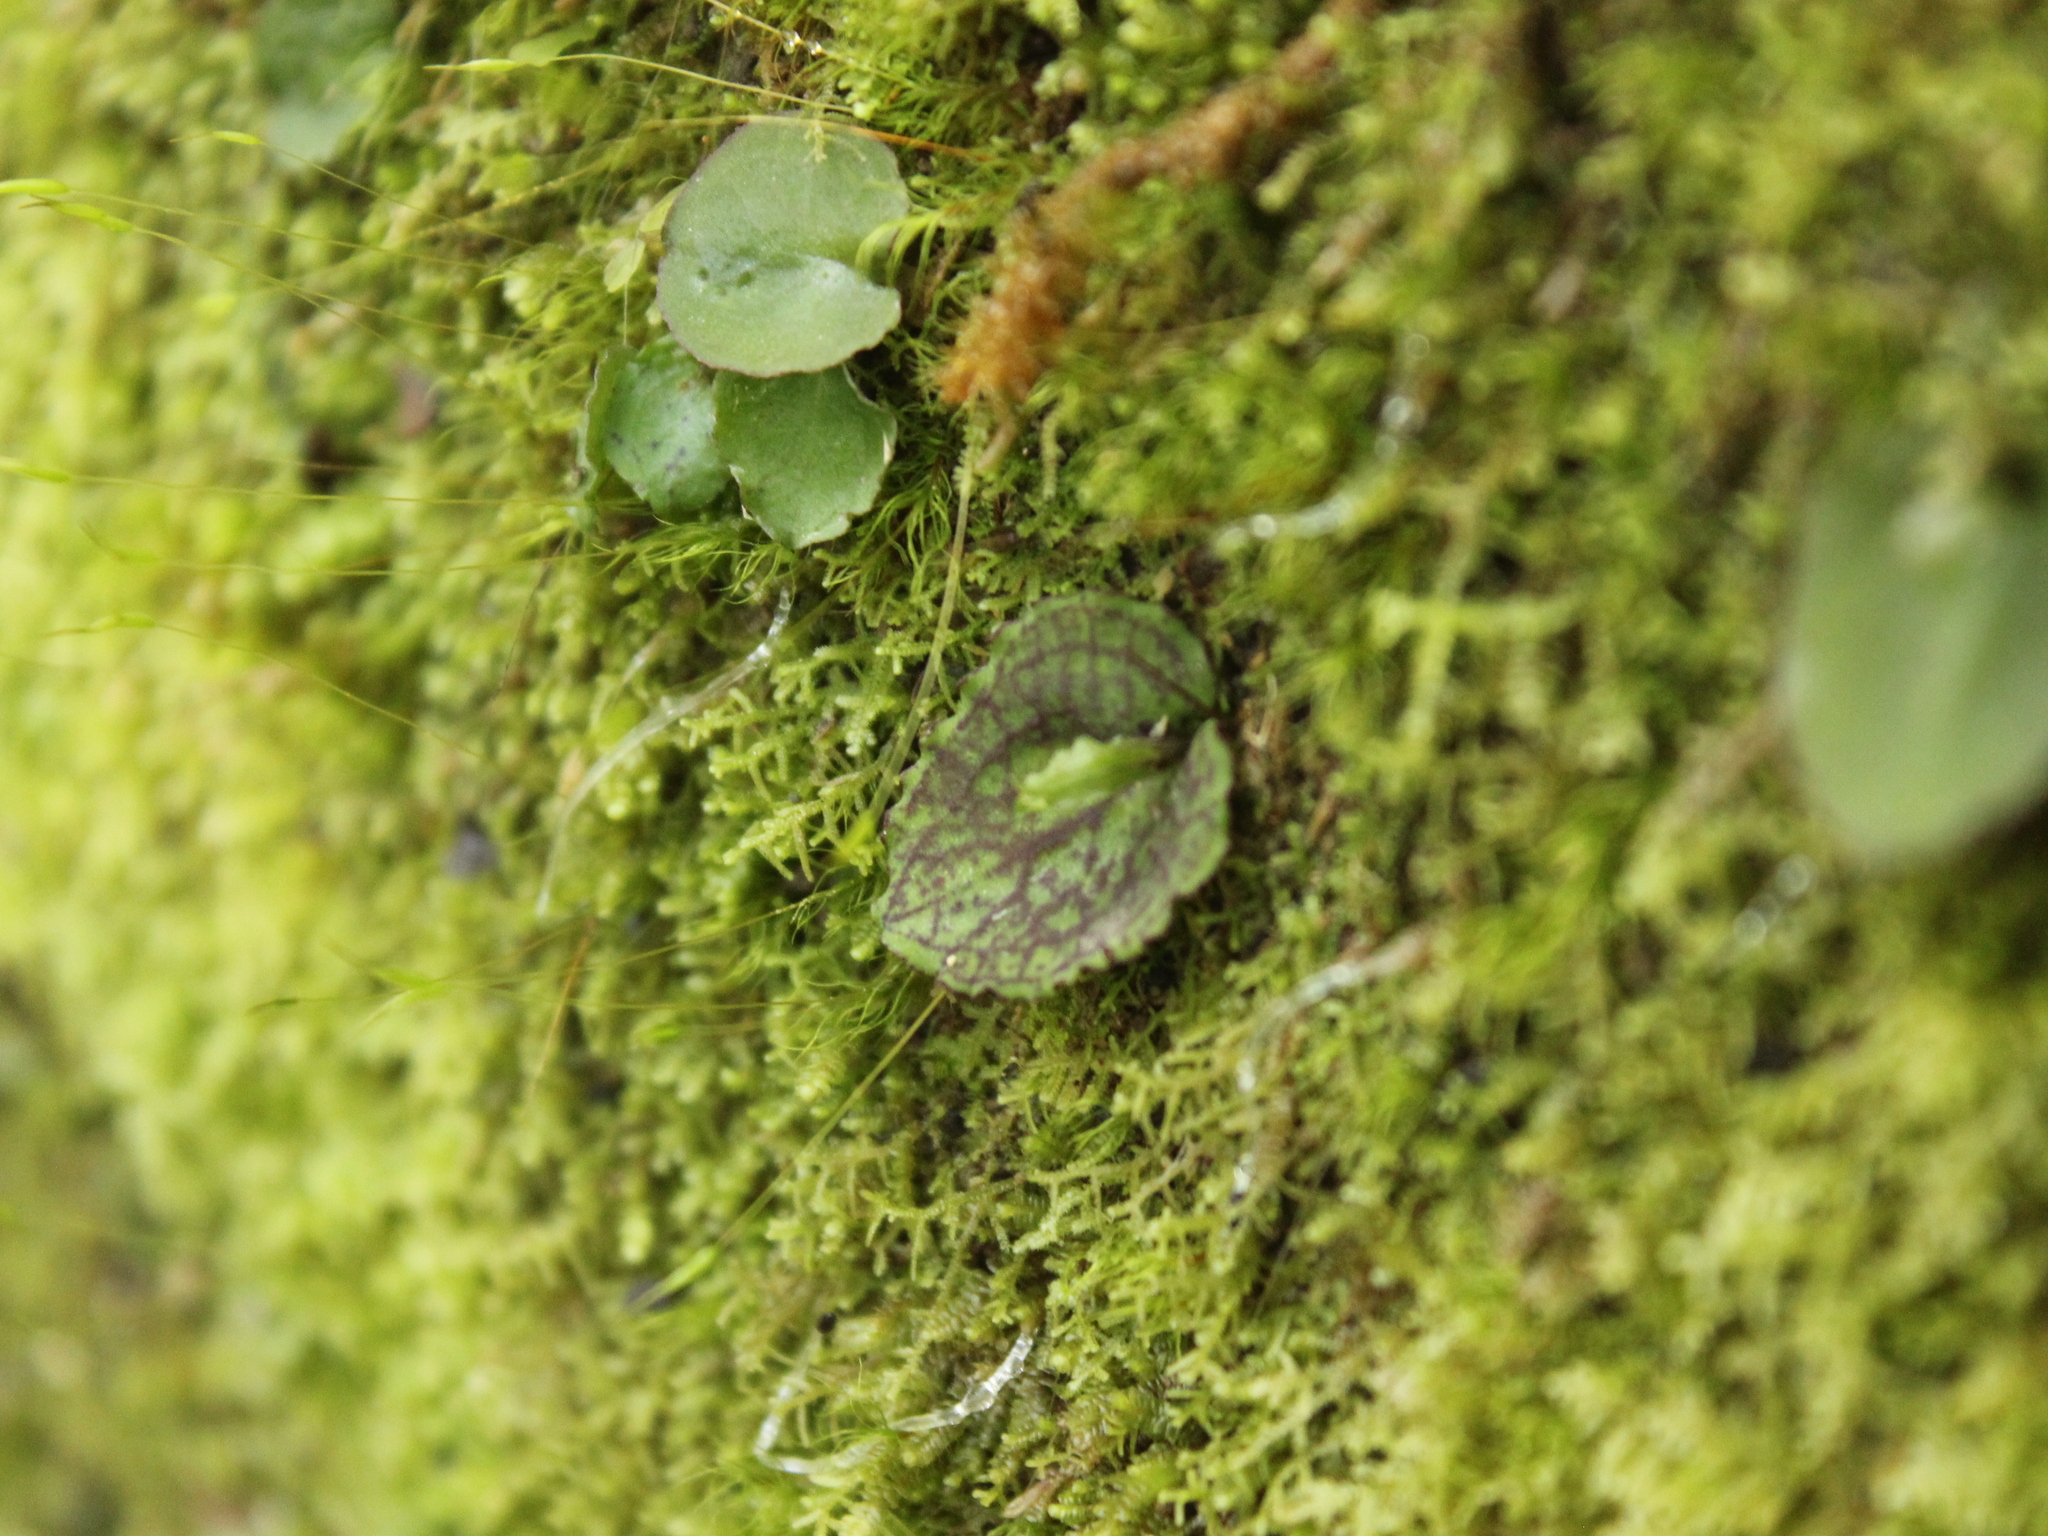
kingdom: Plantae
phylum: Tracheophyta
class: Liliopsida
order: Asparagales
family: Orchidaceae
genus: Corybas
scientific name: Corybas oblongus
